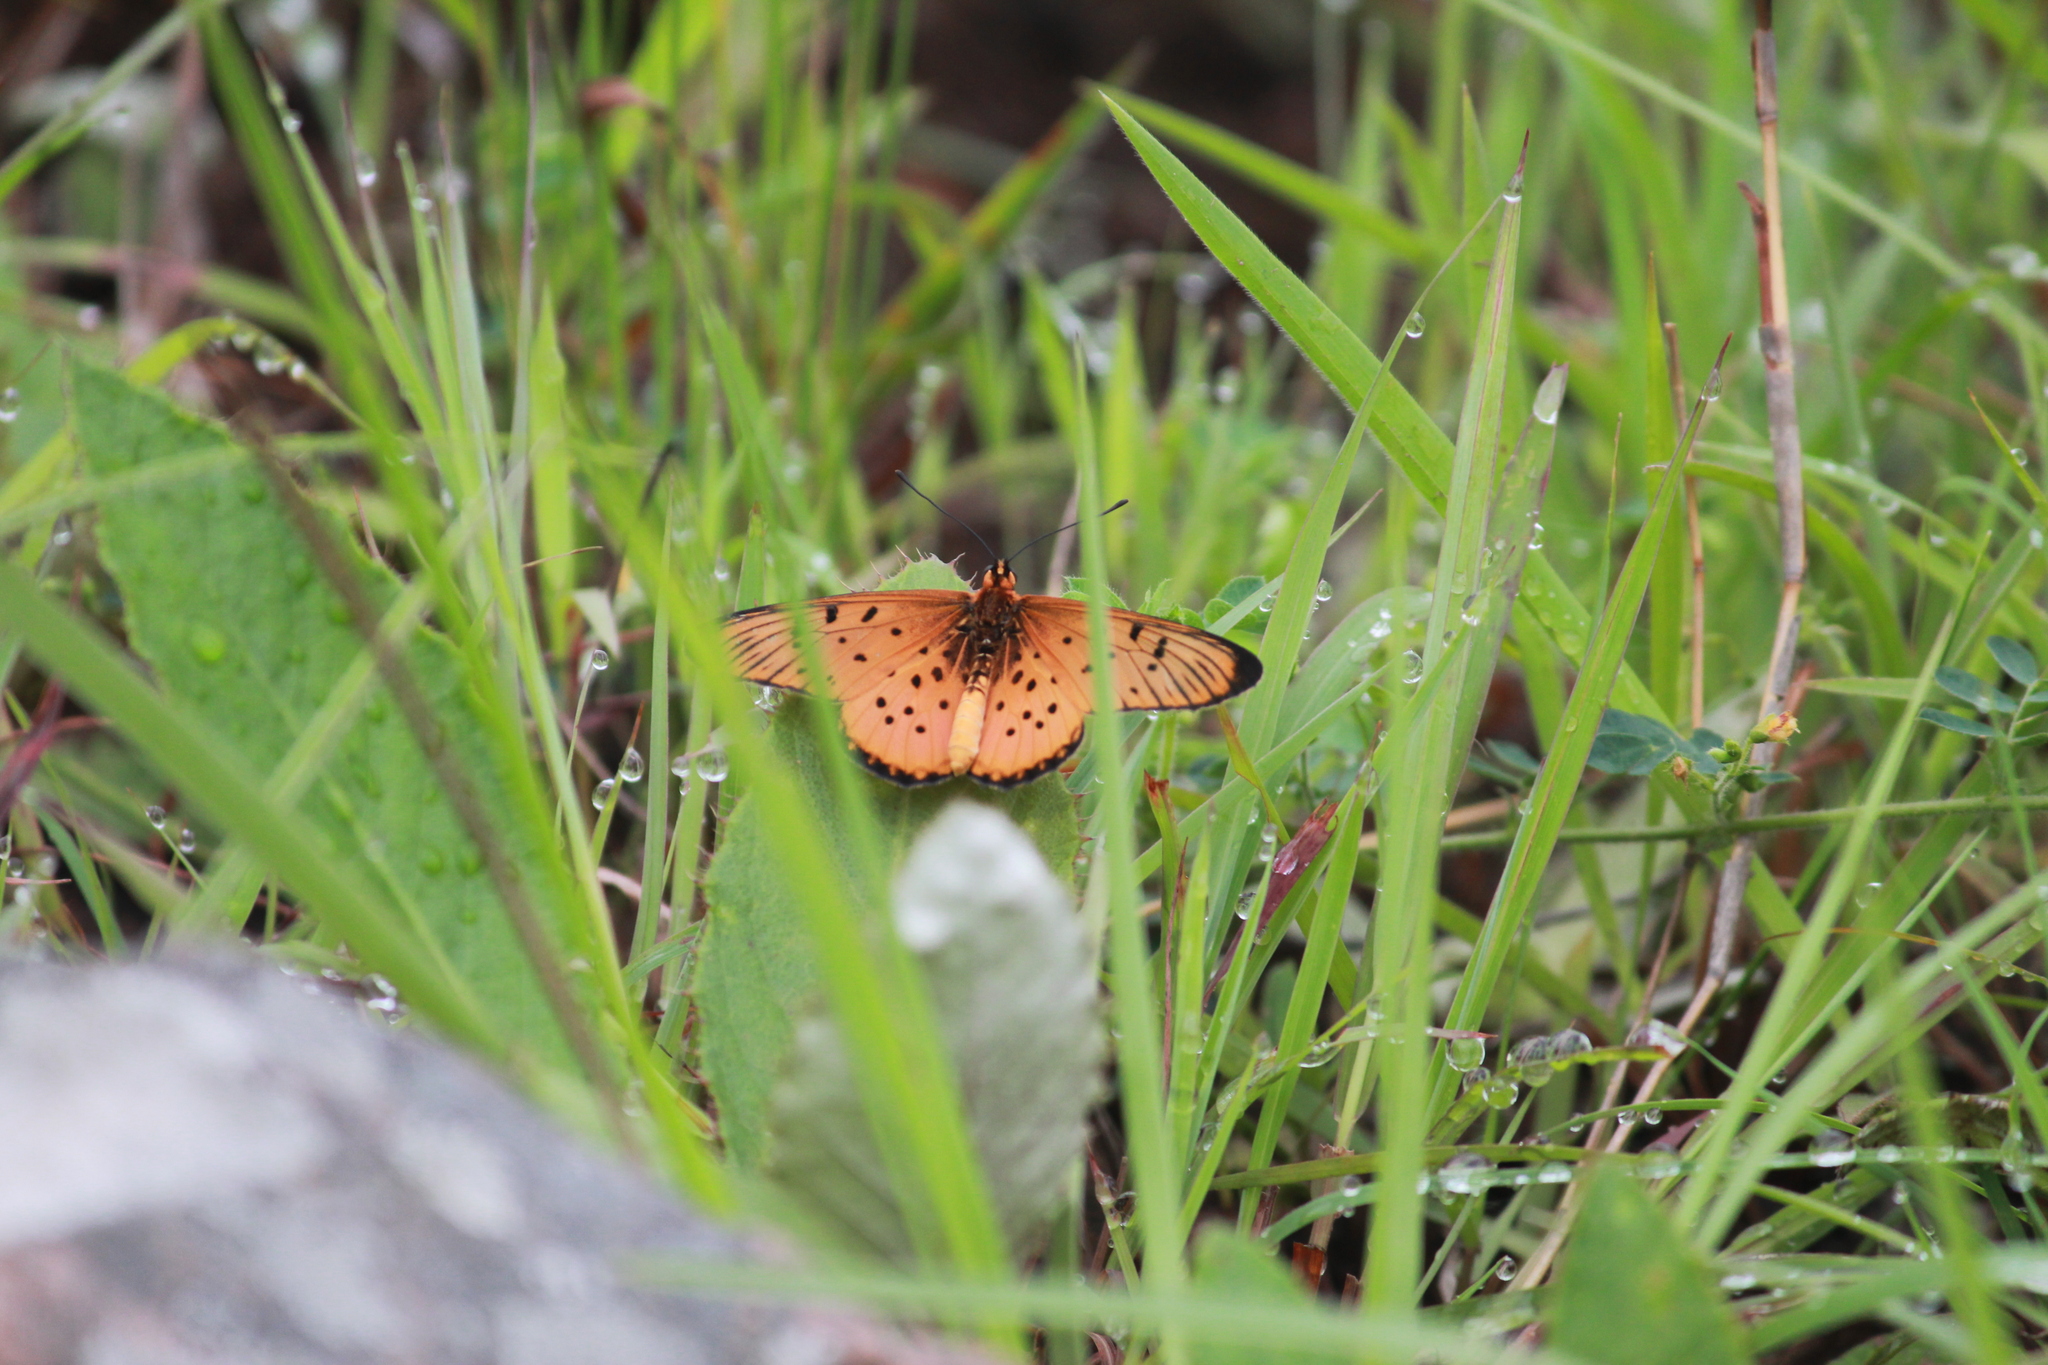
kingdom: Animalia
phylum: Arthropoda
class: Insecta
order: Lepidoptera
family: Nymphalidae
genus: Stephenia
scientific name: Stephenia
